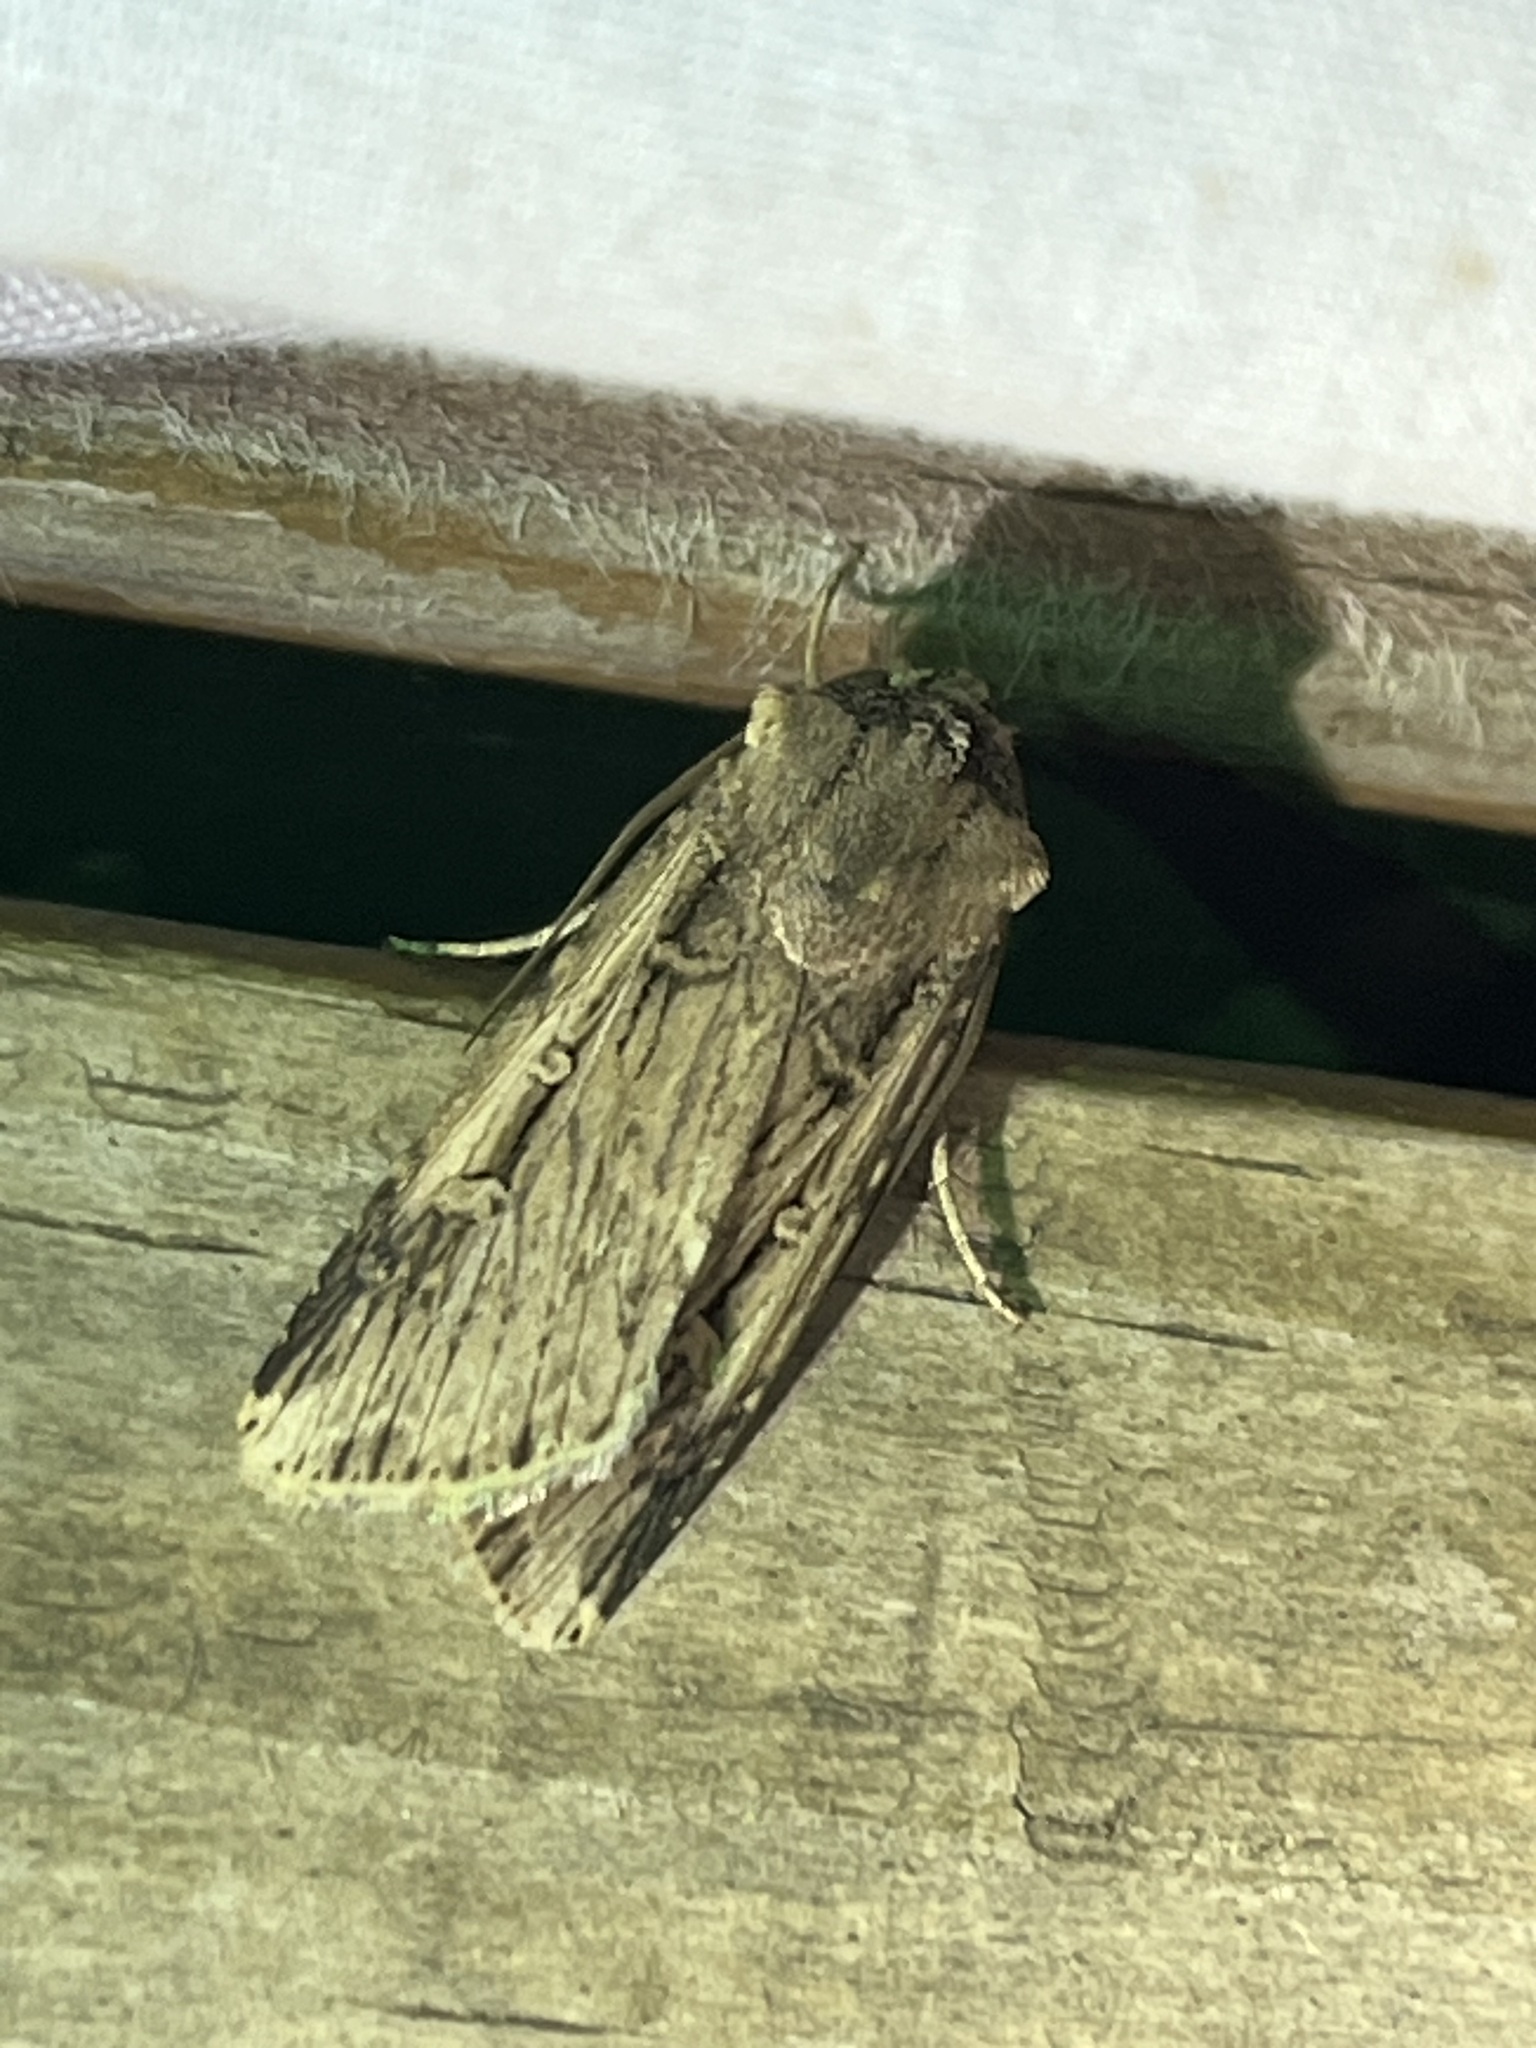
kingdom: Animalia
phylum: Arthropoda
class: Insecta
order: Lepidoptera
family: Noctuidae
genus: Feltia
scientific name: Feltia subterranea
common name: Granulate cutworm
